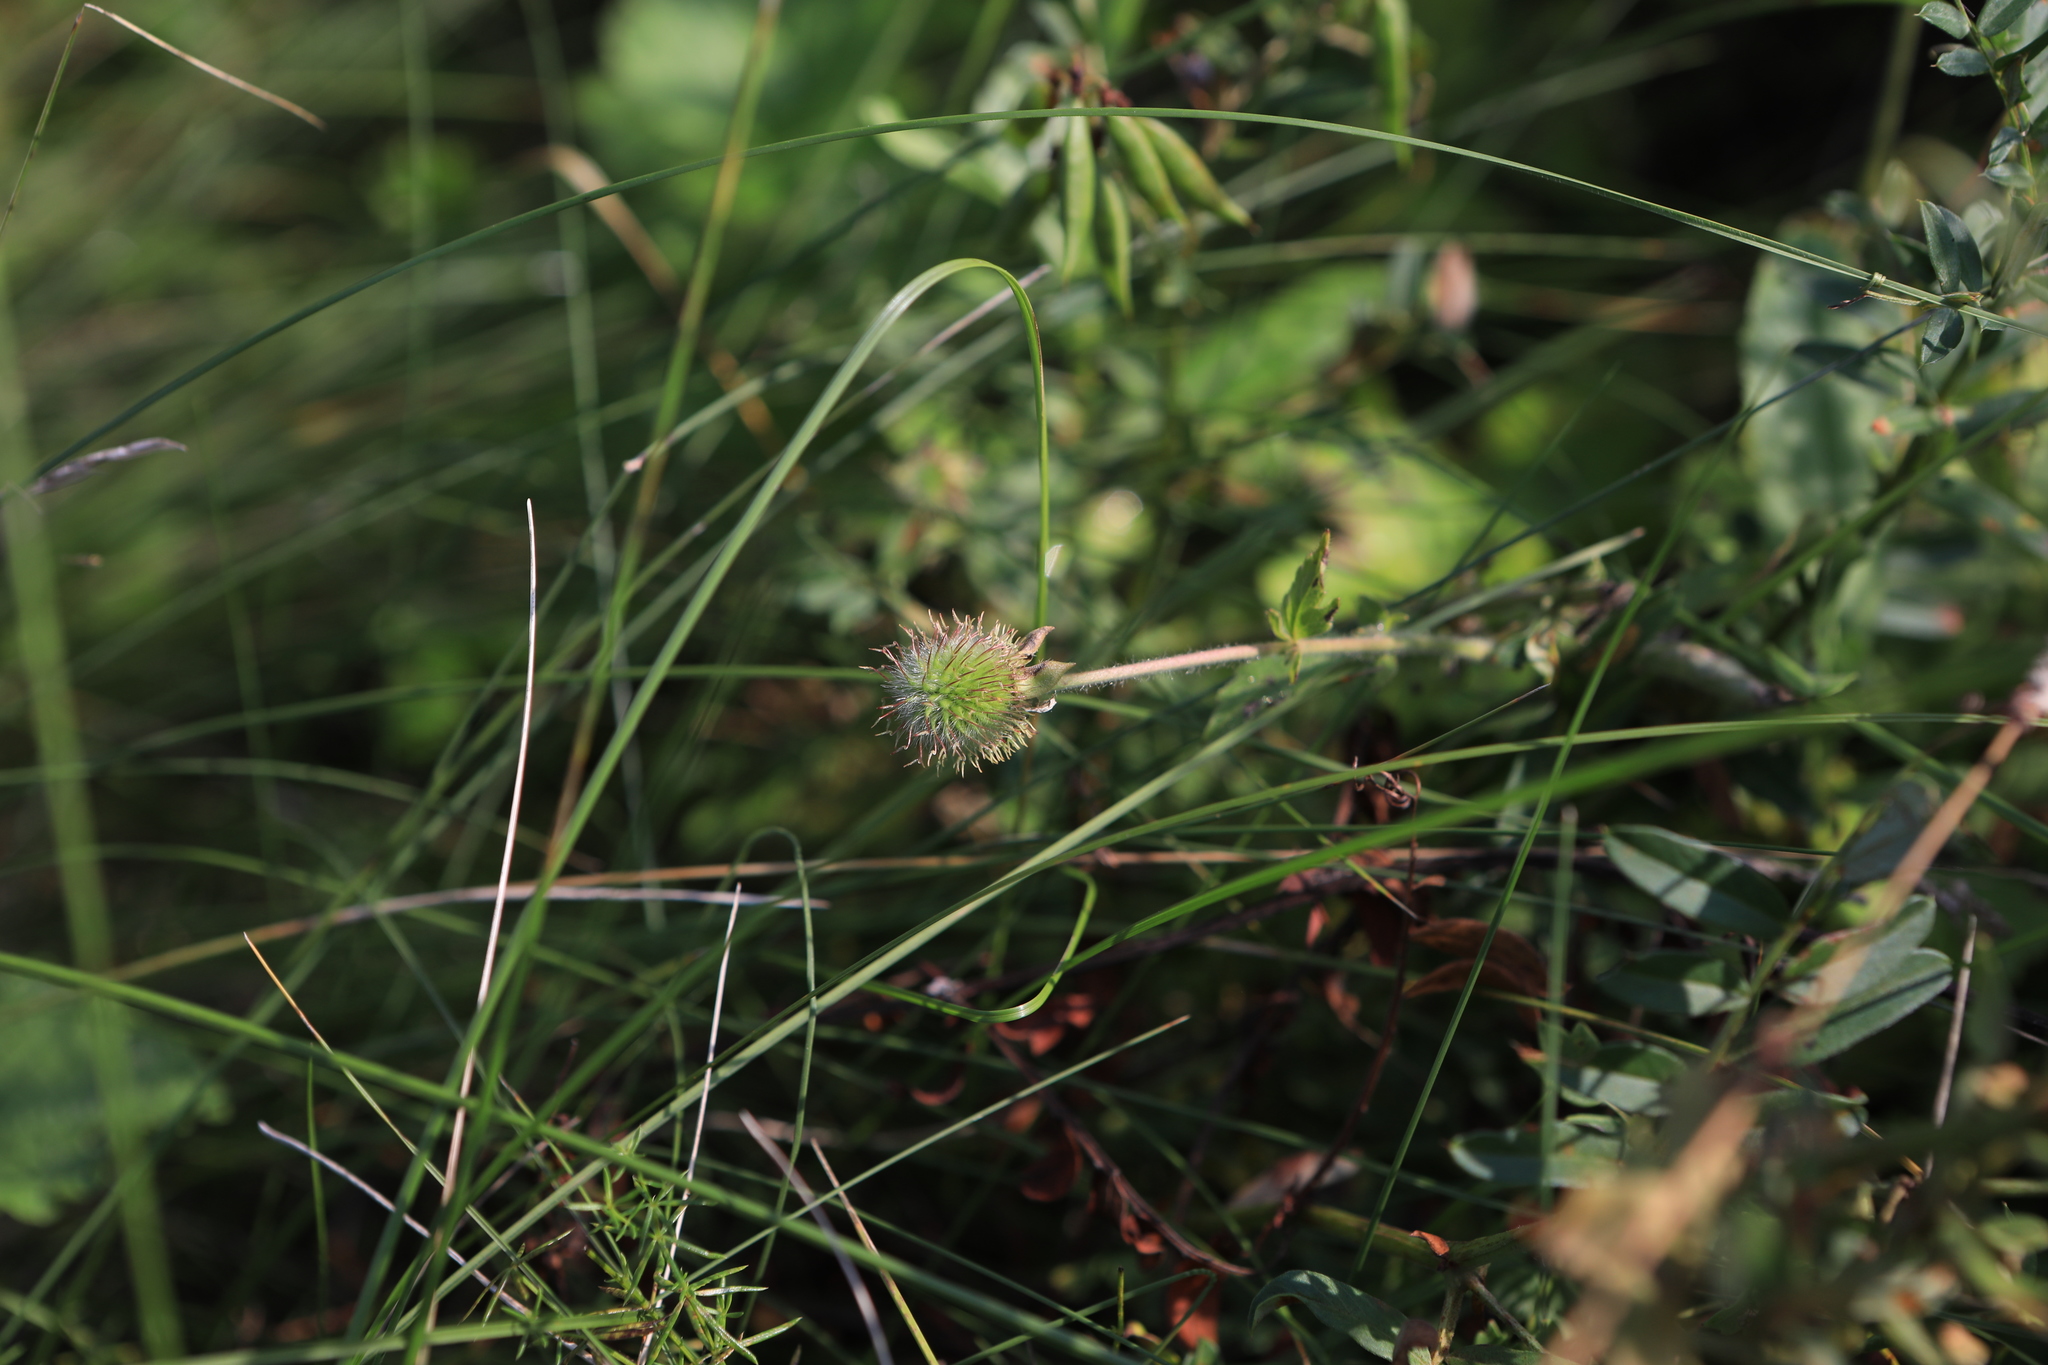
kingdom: Plantae
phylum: Tracheophyta
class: Magnoliopsida
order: Rosales
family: Rosaceae
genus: Geum
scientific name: Geum aleppicum
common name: Yellow avens
